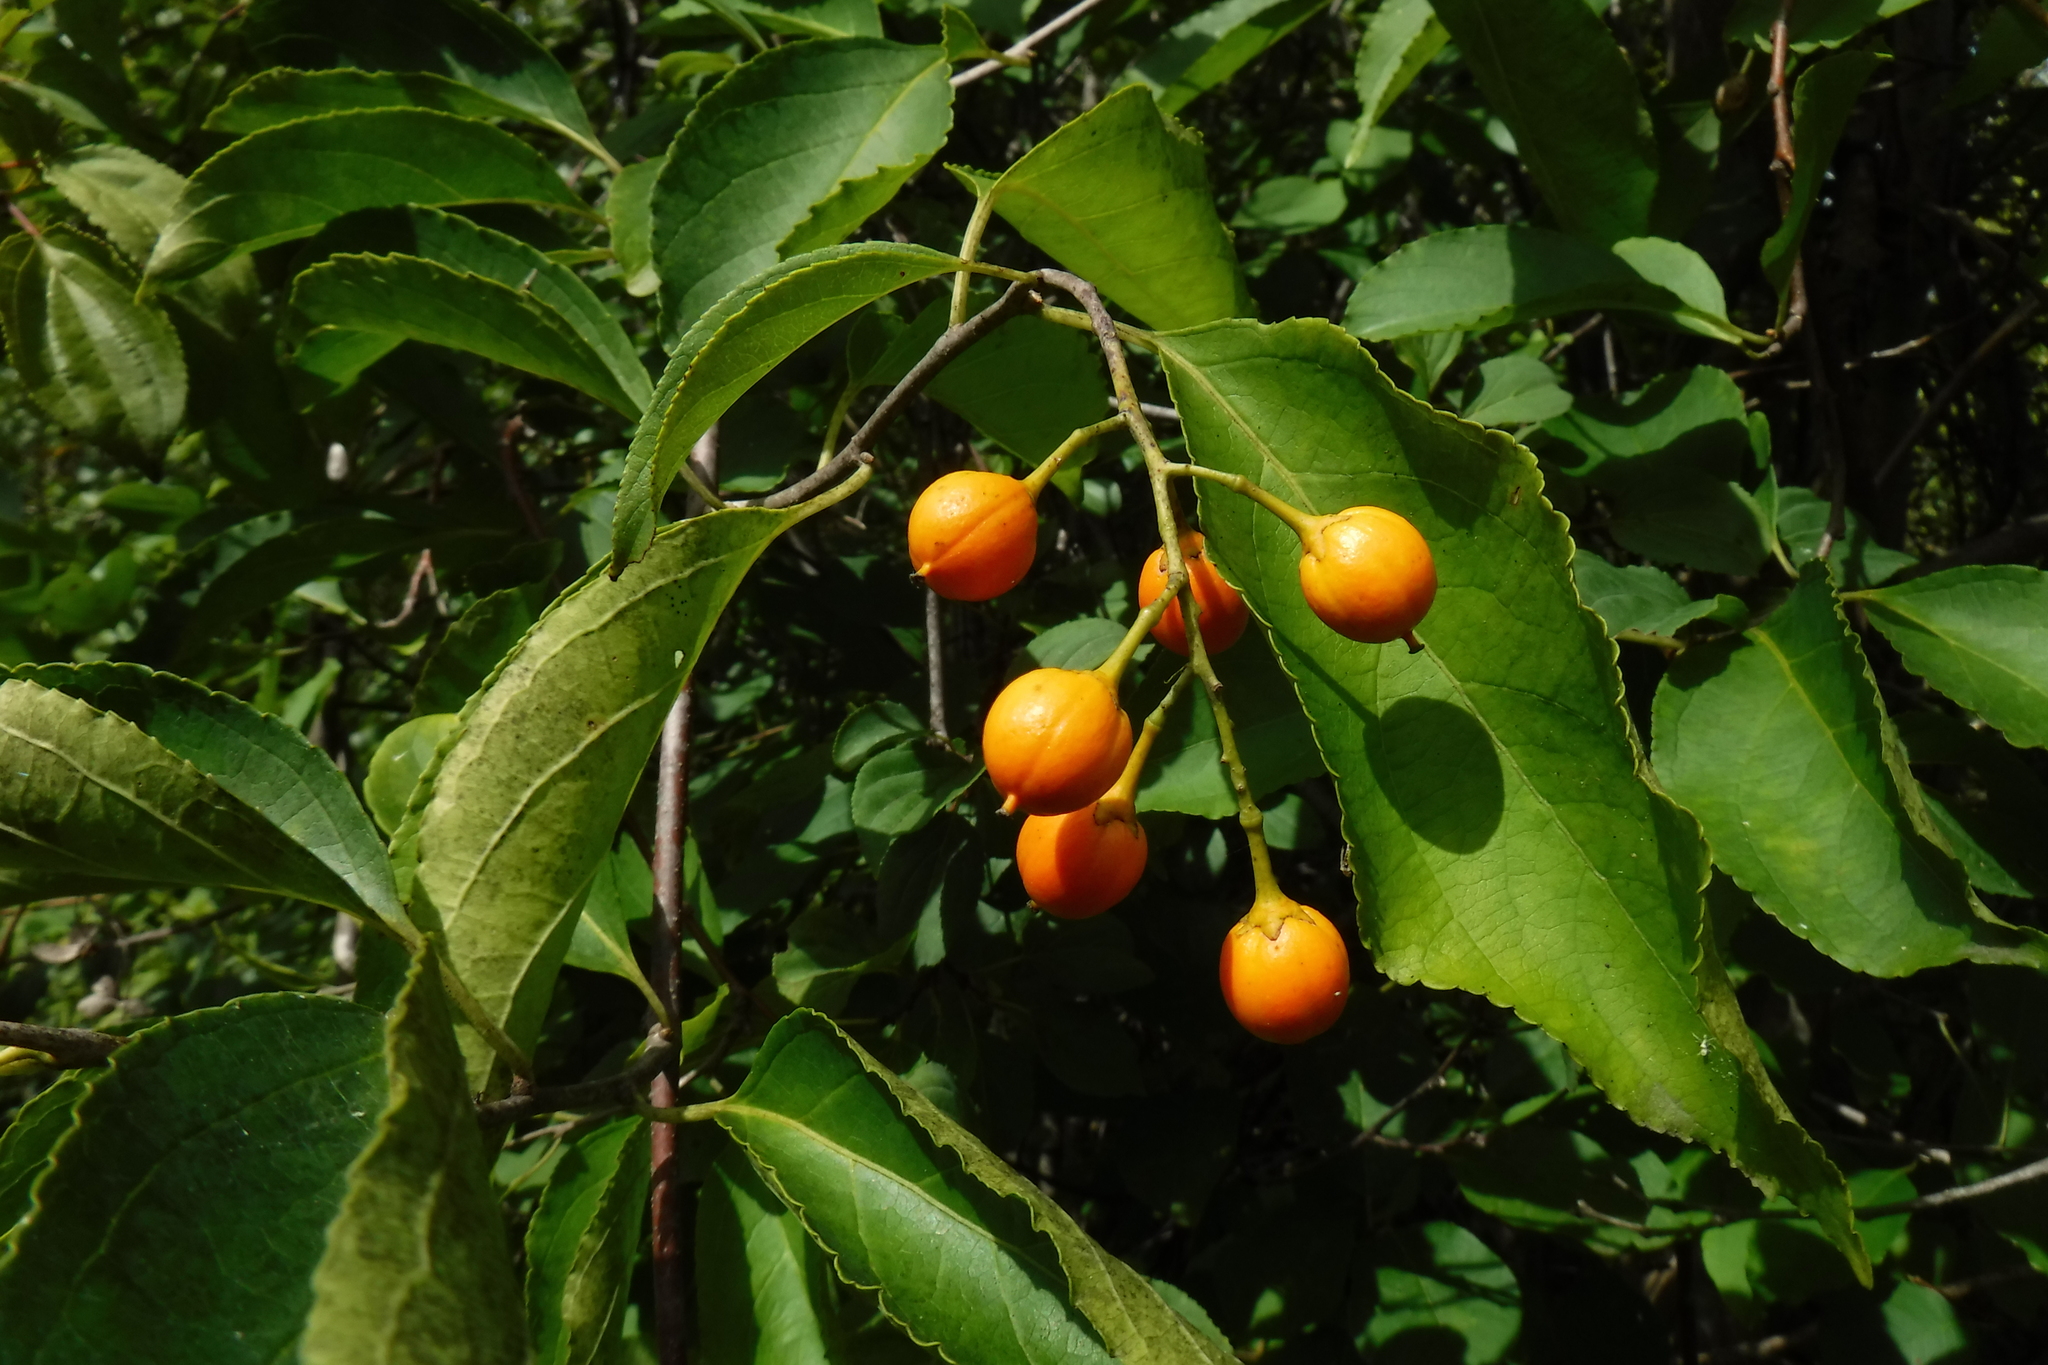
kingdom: Plantae
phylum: Tracheophyta
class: Magnoliopsida
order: Celastrales
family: Celastraceae
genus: Celastrus
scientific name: Celastrus scandens
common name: American bittersweet
